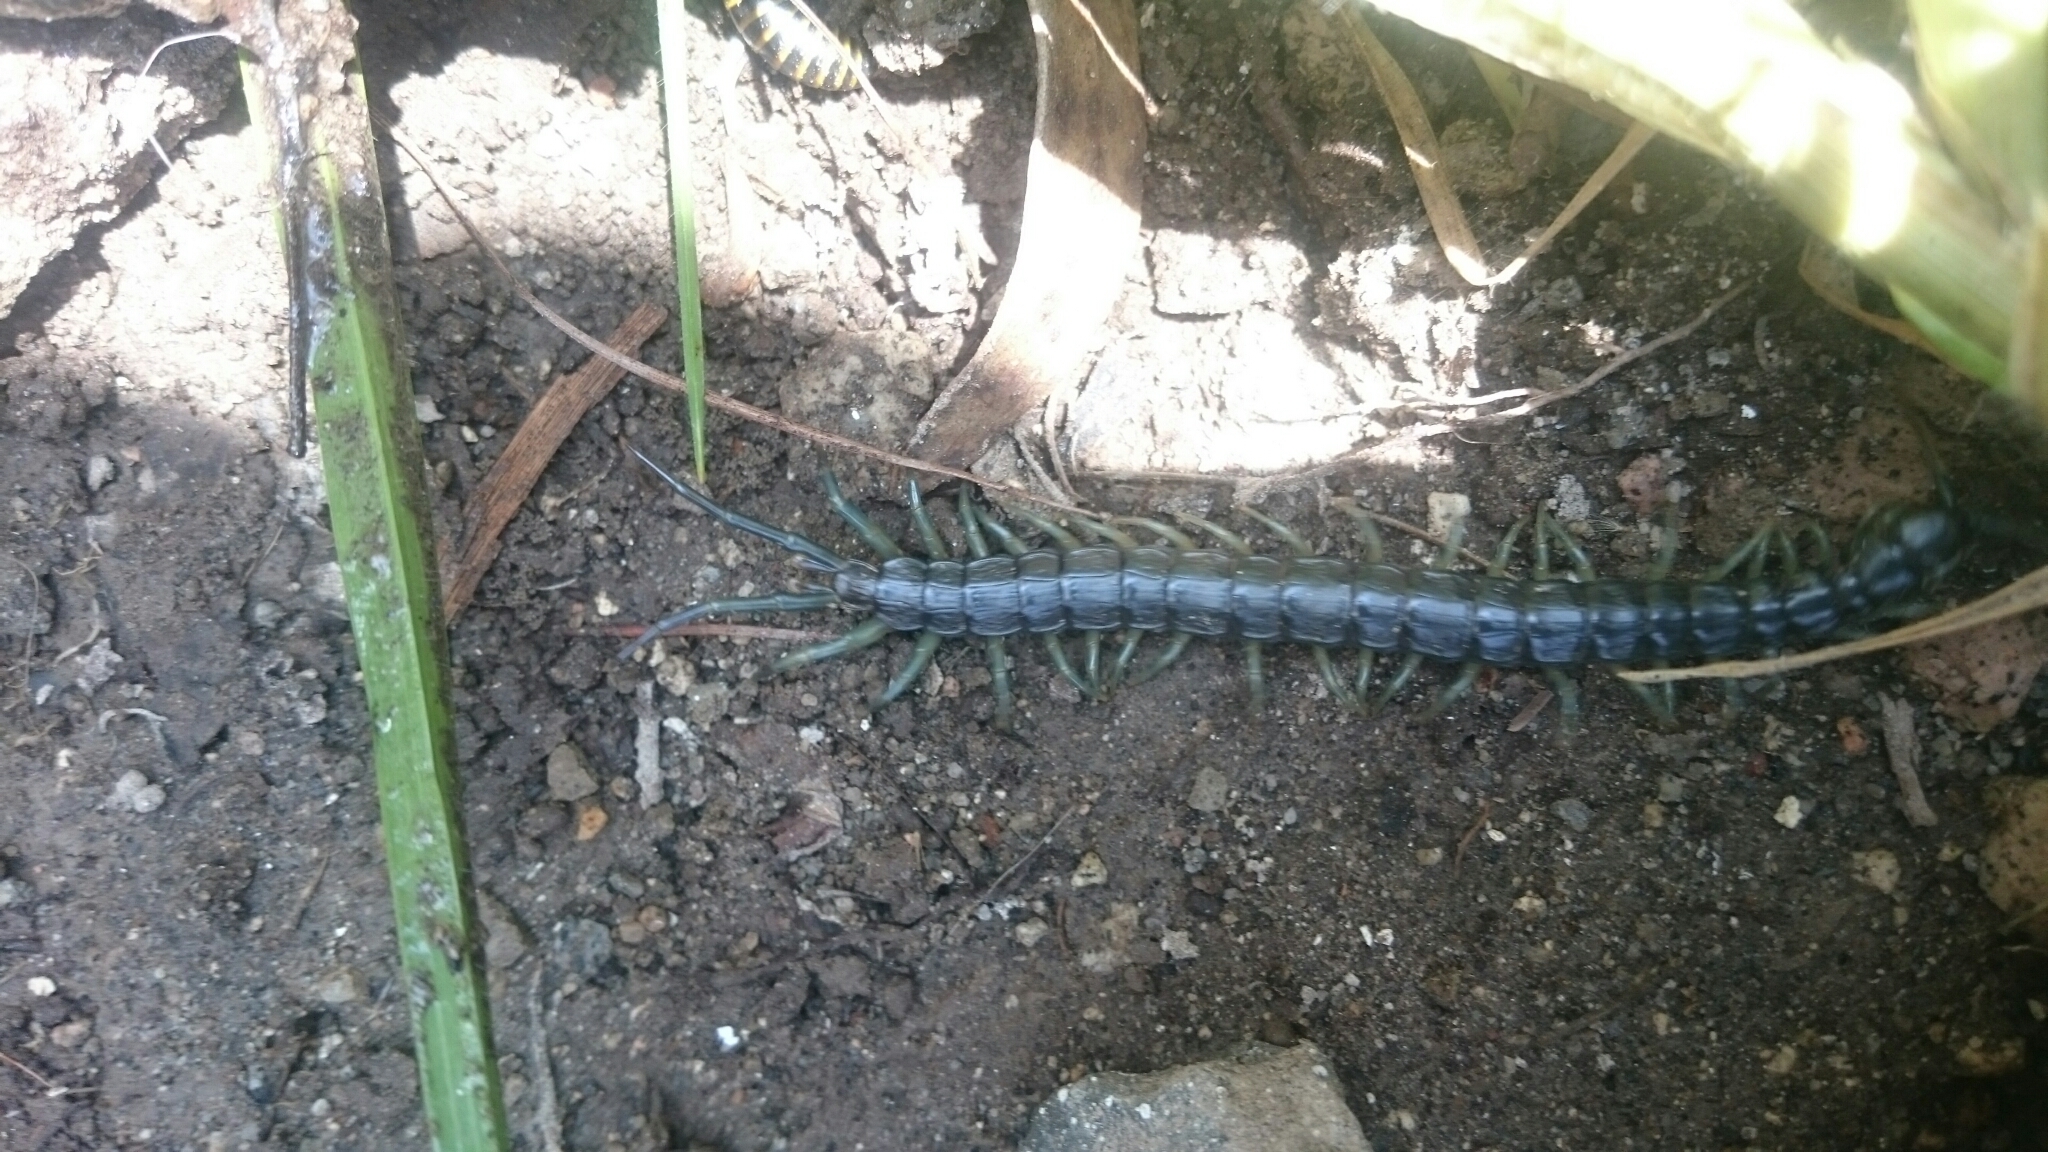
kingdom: Animalia
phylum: Arthropoda
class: Chilopoda
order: Scolopendromorpha
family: Scolopendridae
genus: Otostigmus
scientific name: Otostigmus silvestrii
